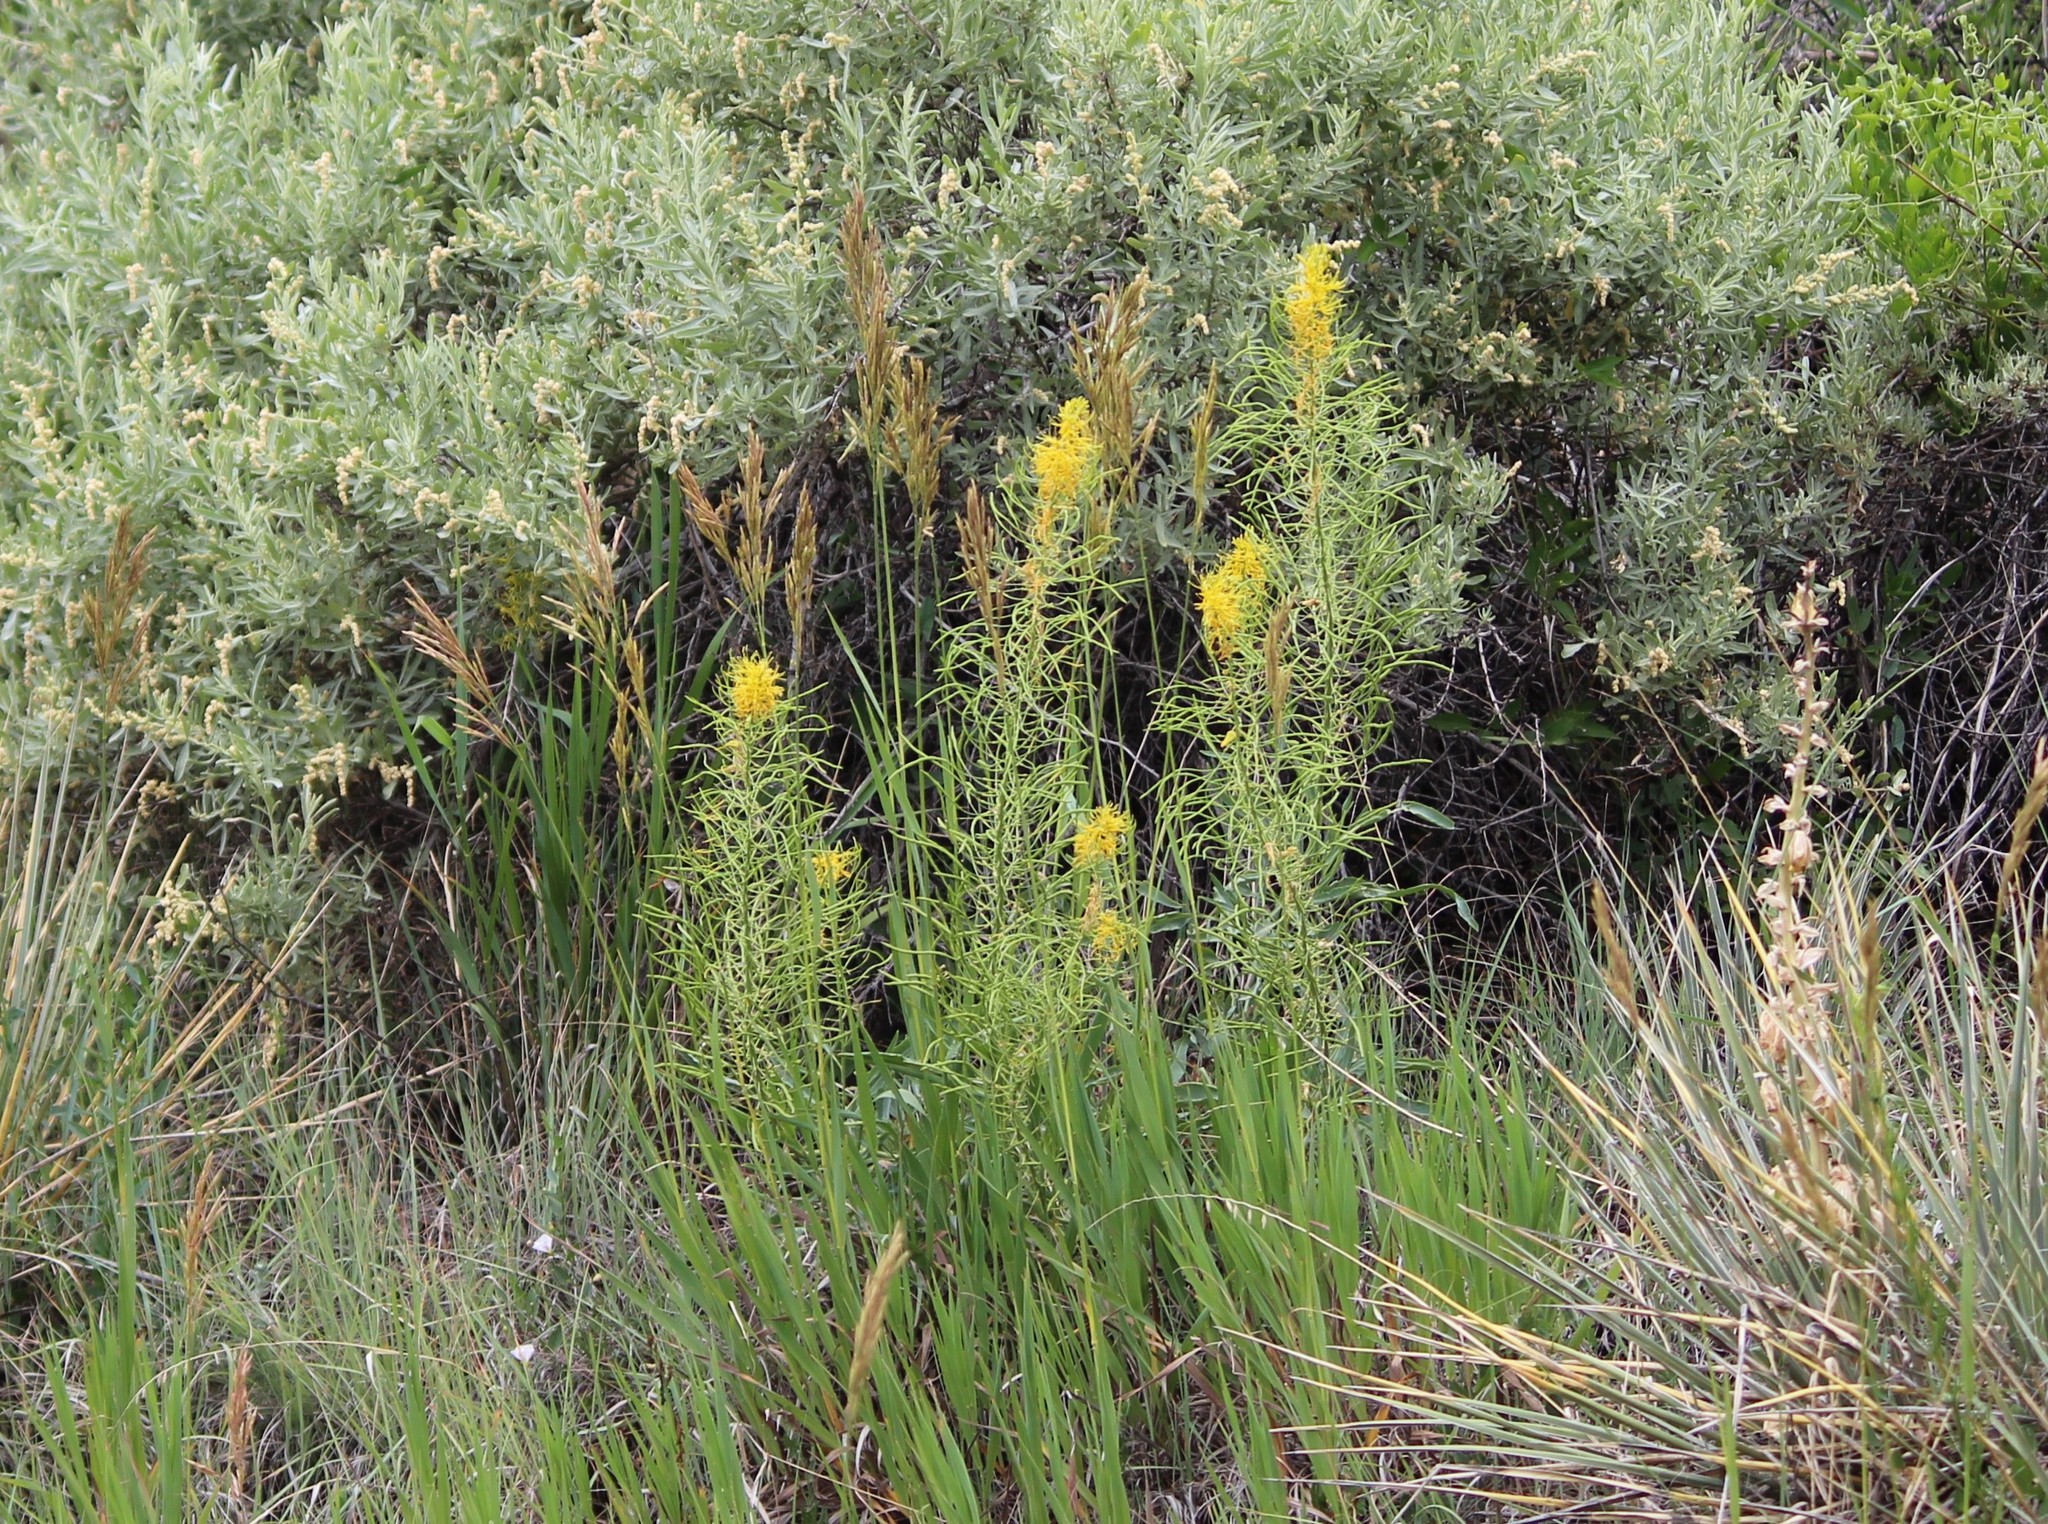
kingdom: Plantae
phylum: Tracheophyta
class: Magnoliopsida
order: Brassicales
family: Brassicaceae
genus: Stanleya
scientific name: Stanleya pinnata
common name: Prince's-plume
